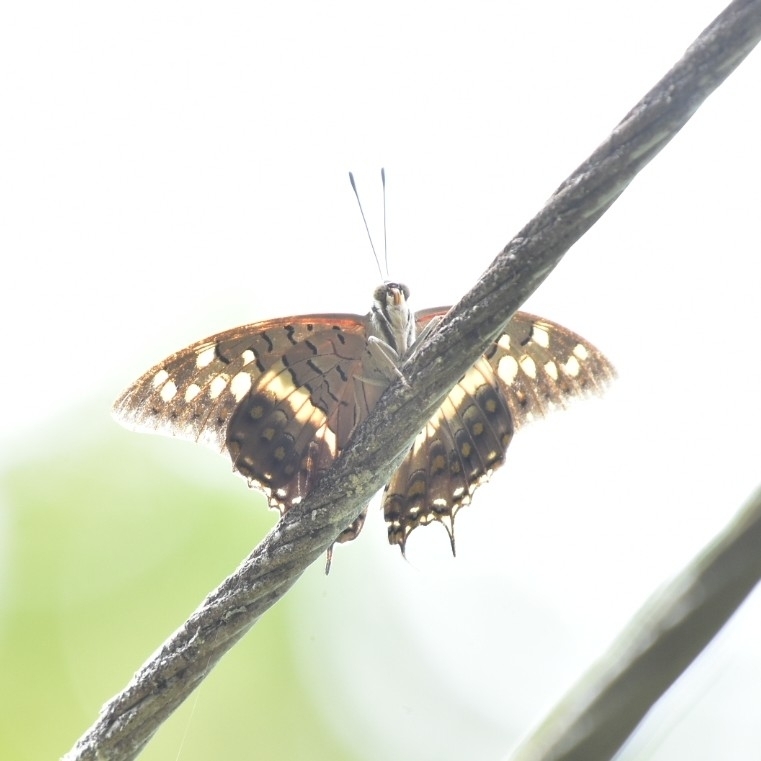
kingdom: Animalia
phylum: Arthropoda
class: Insecta
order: Lepidoptera
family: Nymphalidae
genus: Charaxes
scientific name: Charaxes solon
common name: Black rajah
